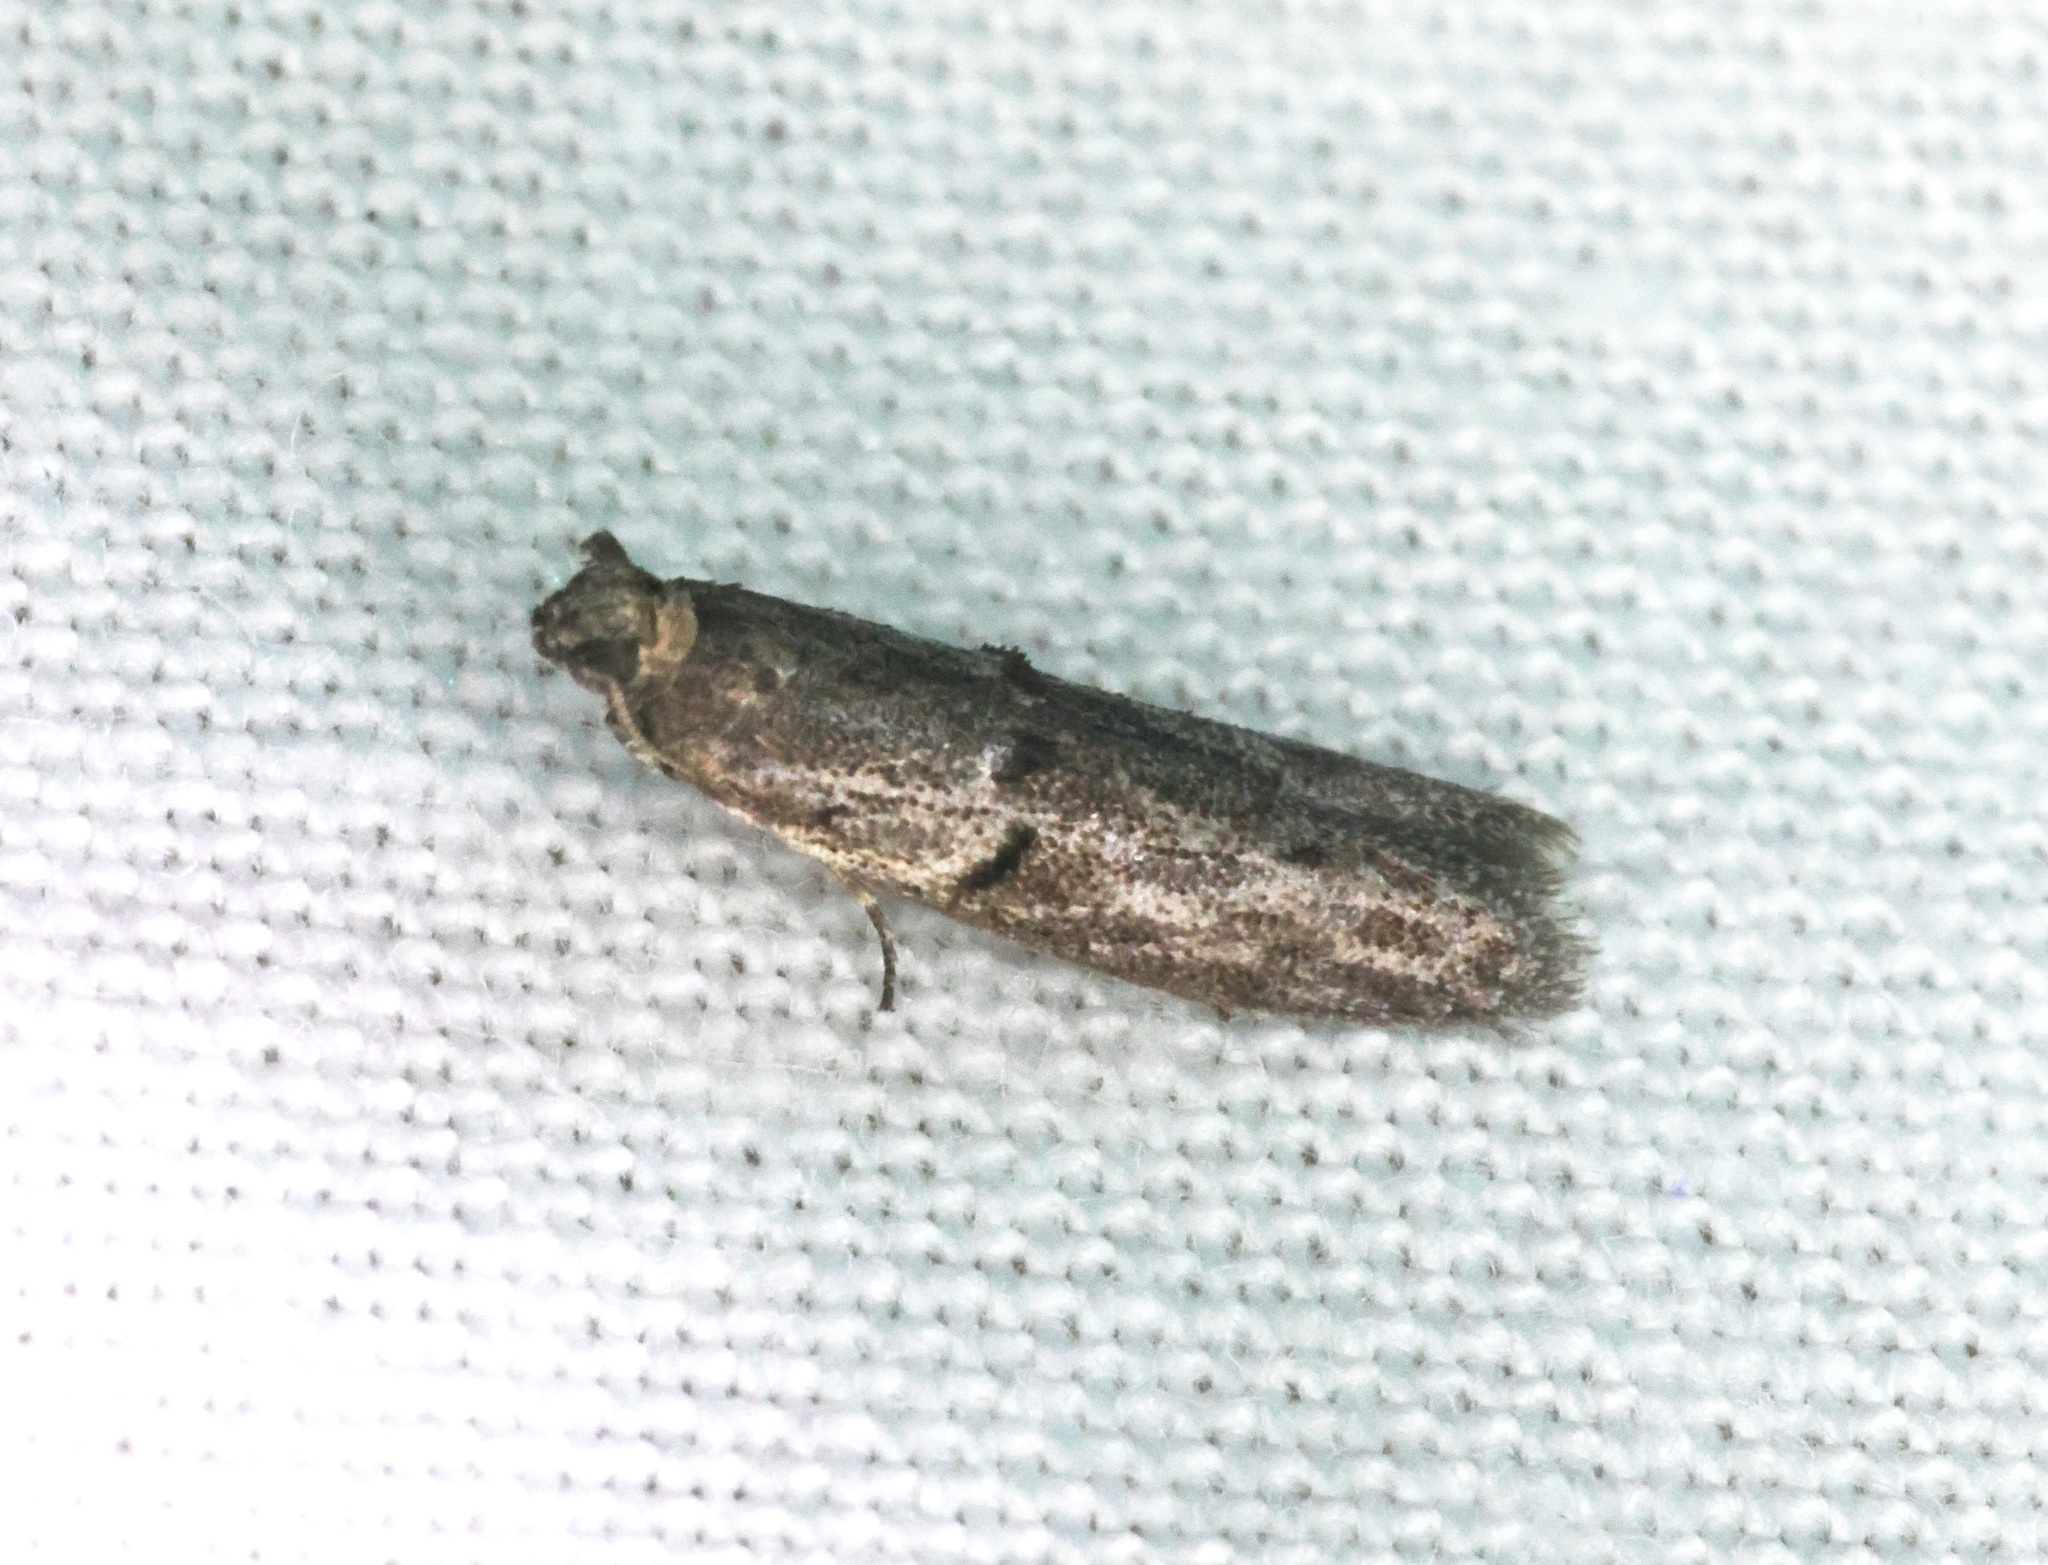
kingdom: Animalia
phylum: Arthropoda
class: Insecta
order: Lepidoptera
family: Pyralidae
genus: Copamyntis
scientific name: Copamyntis leptocosma
